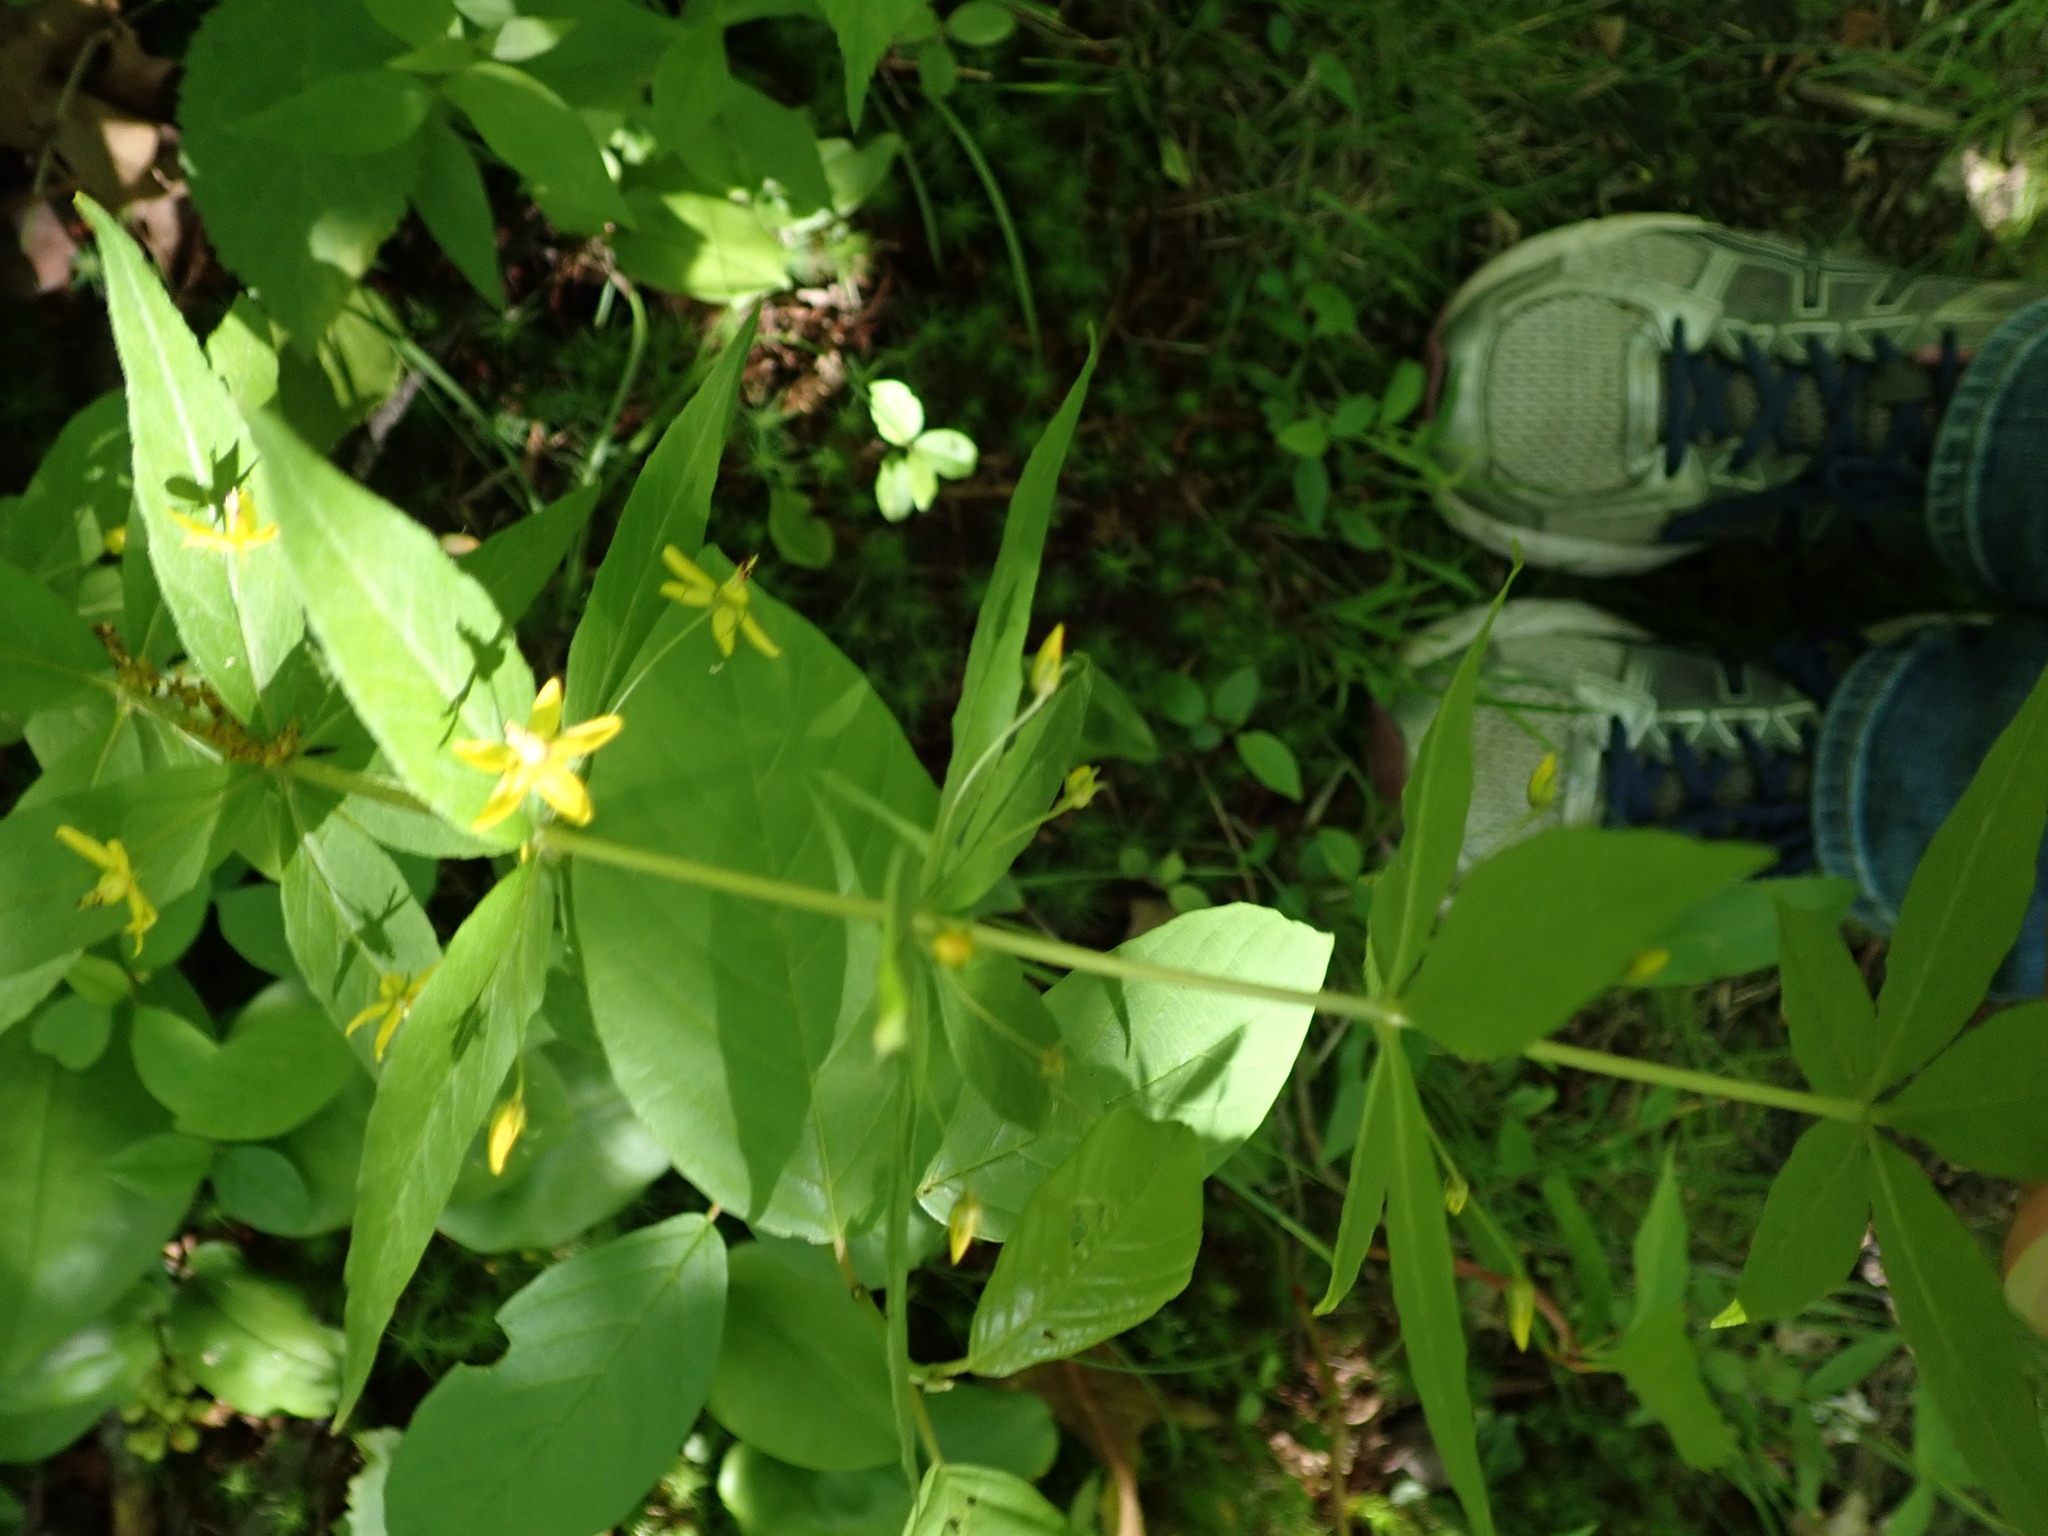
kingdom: Plantae
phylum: Tracheophyta
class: Magnoliopsida
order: Ericales
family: Primulaceae
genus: Lysimachia
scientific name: Lysimachia quadrifolia
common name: Whorled loosestrife
